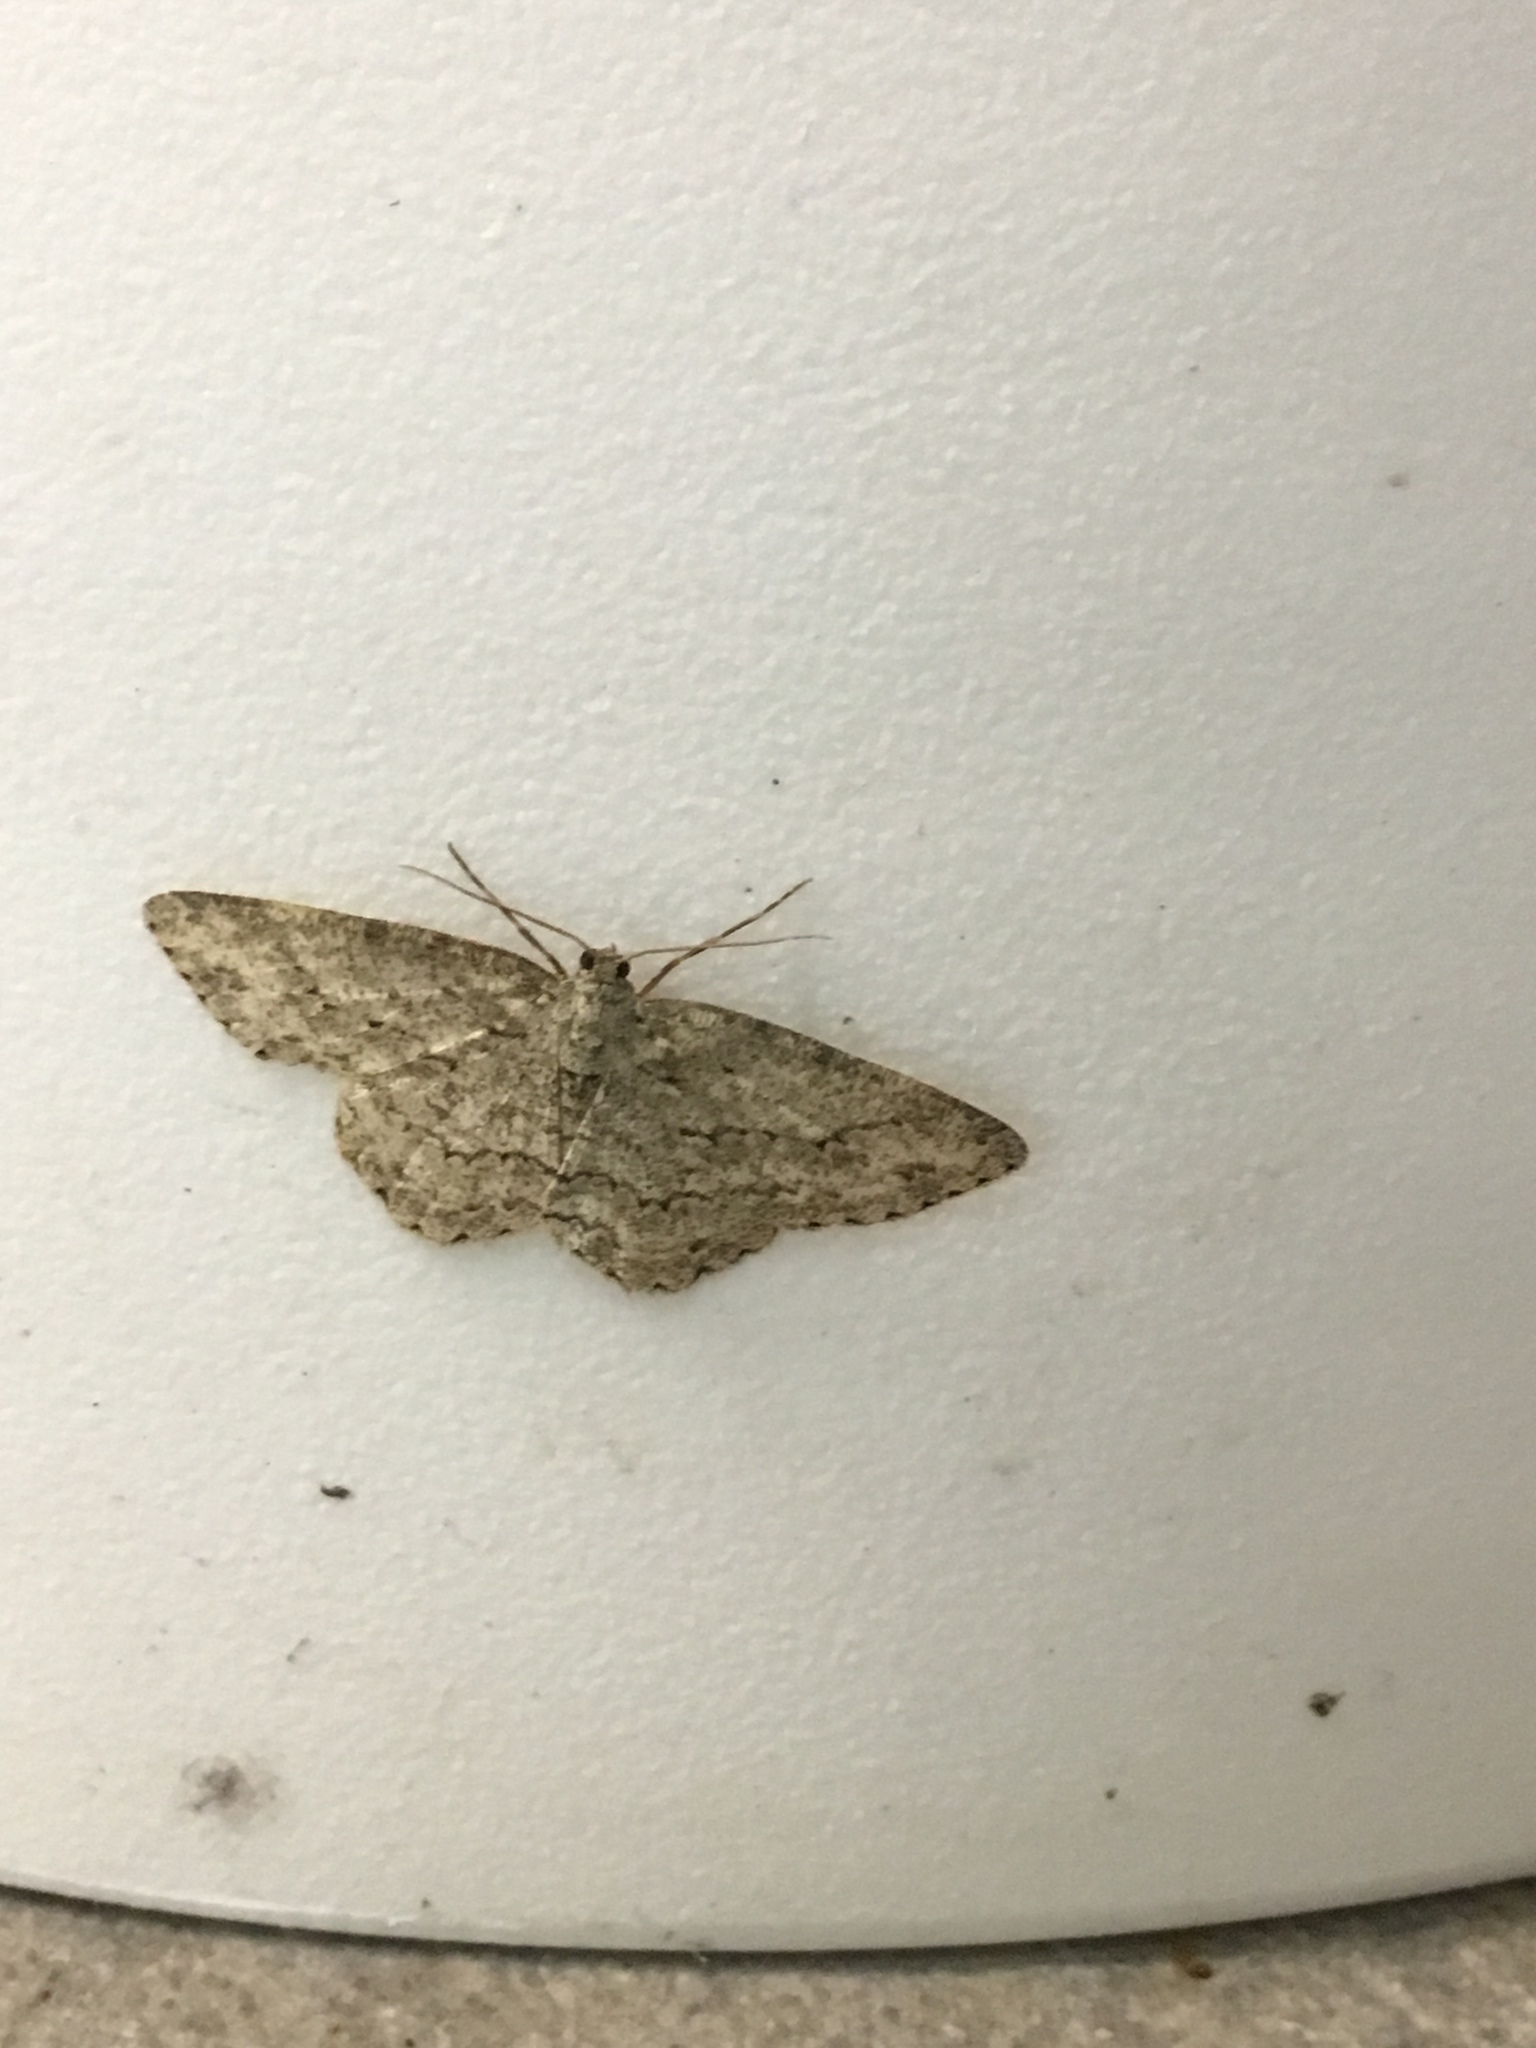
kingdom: Animalia
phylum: Arthropoda
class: Insecta
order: Lepidoptera
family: Geometridae
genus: Ectropis
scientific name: Ectropis crepuscularia
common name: Engrailed
